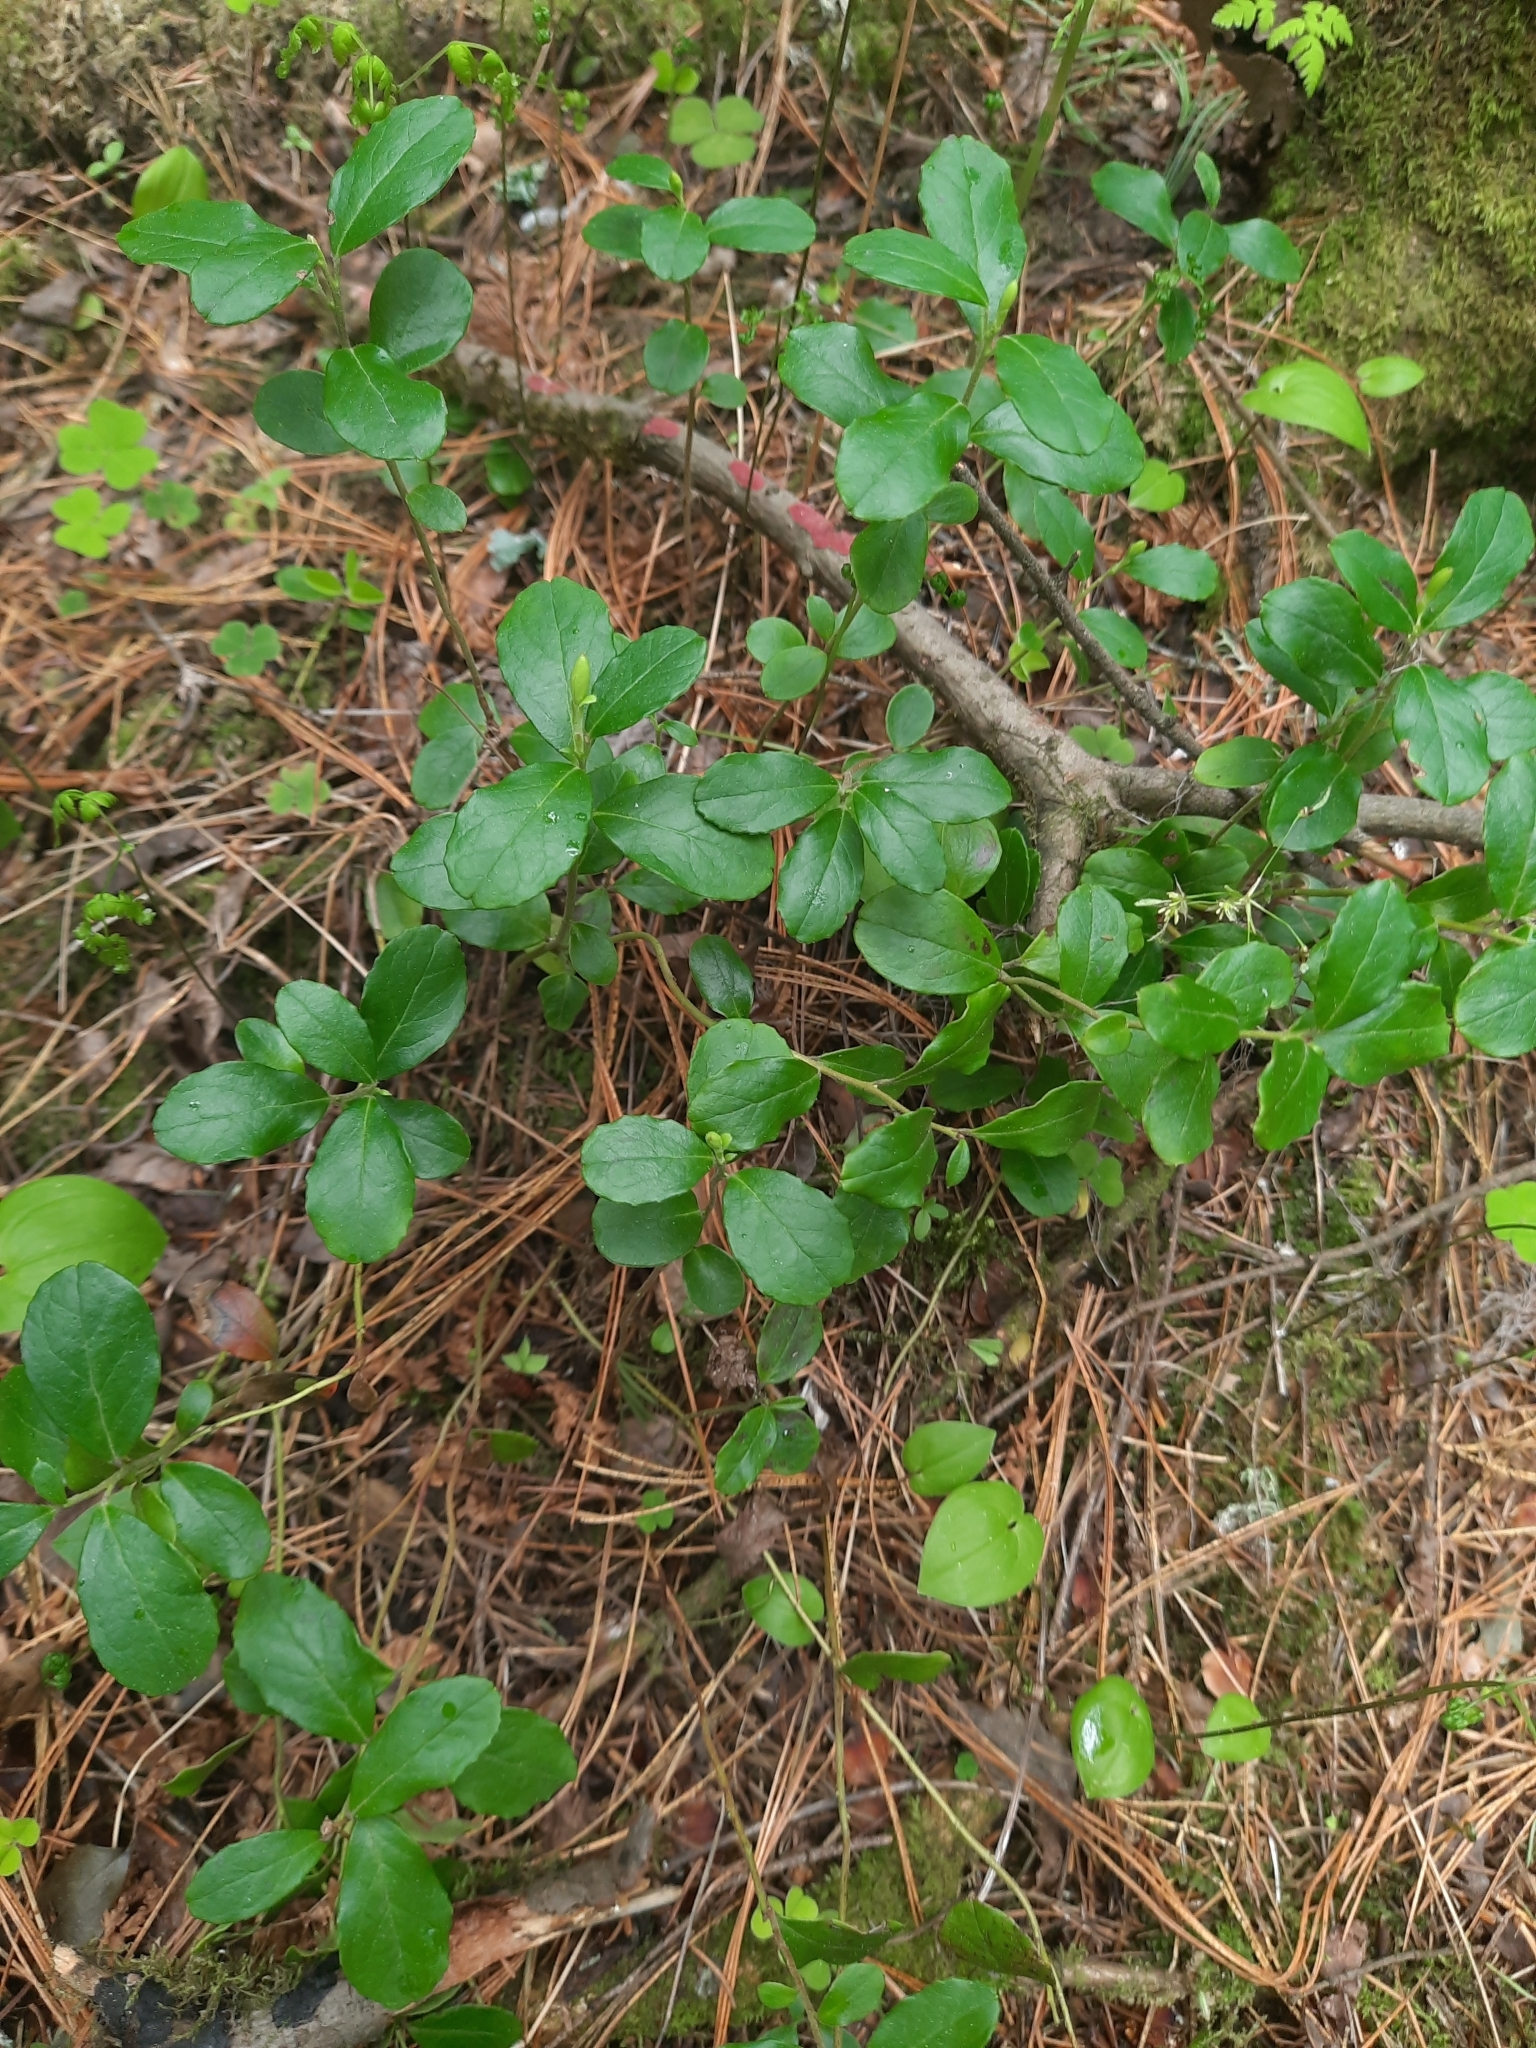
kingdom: Plantae
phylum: Tracheophyta
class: Magnoliopsida
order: Ericales
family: Ericaceae
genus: Vaccinium
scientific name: Vaccinium vitis-idaea
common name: Cowberry
